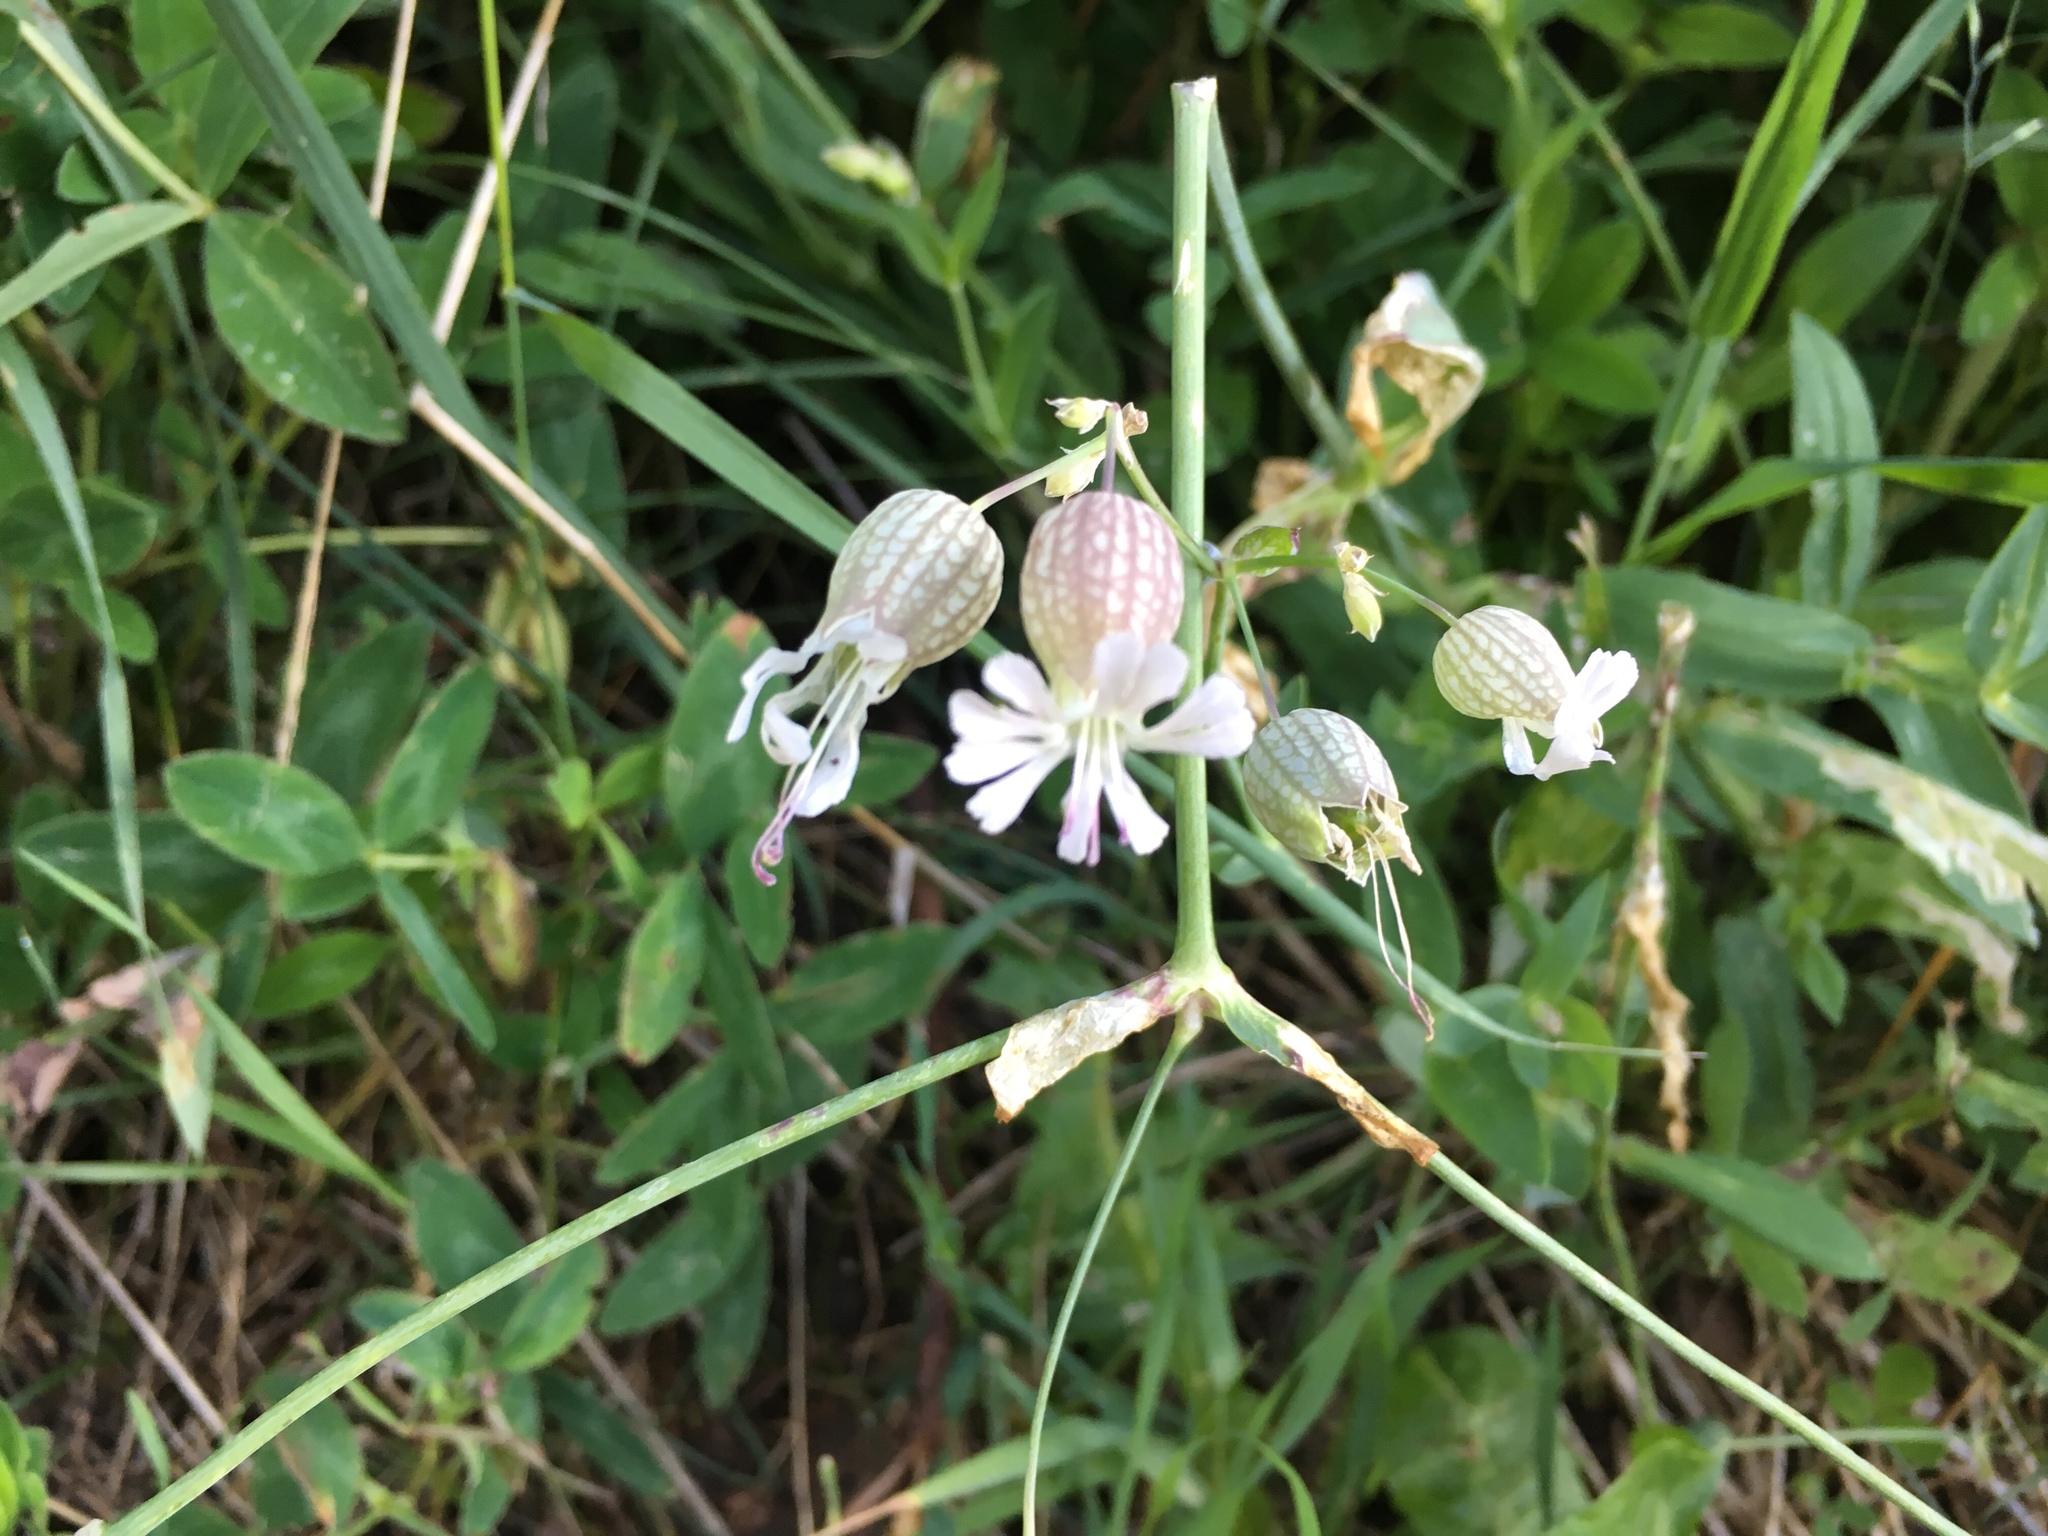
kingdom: Plantae
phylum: Tracheophyta
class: Magnoliopsida
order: Caryophyllales
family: Caryophyllaceae
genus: Silene
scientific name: Silene vulgaris
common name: Bladder campion
